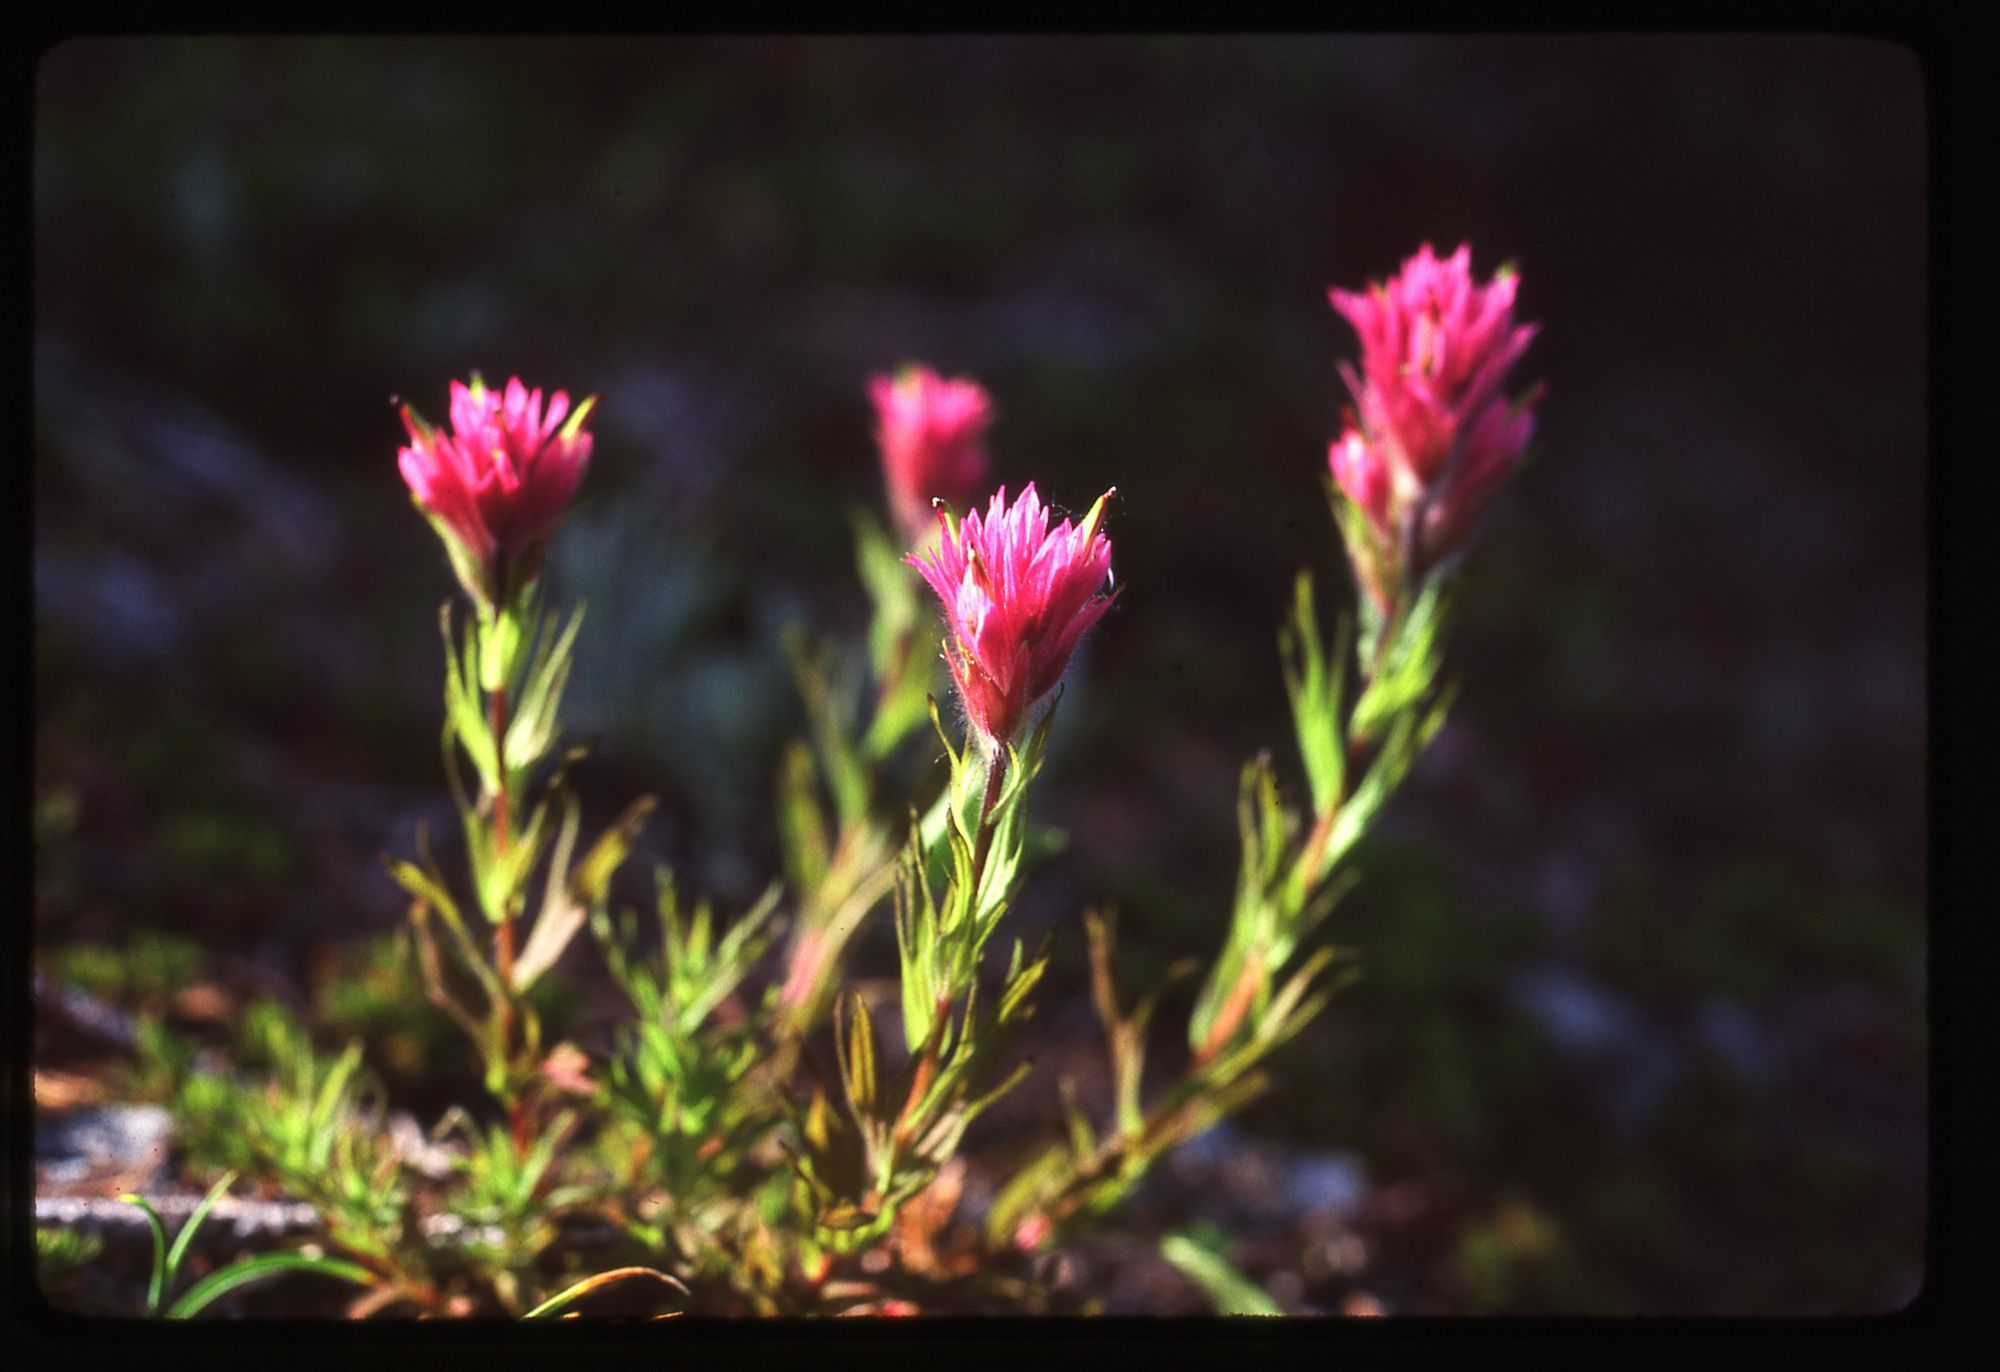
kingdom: Plantae
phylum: Tracheophyta
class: Magnoliopsida
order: Lamiales
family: Orobanchaceae
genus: Castilleja
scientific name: Castilleja parviflora
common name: Mountain paintbrush
